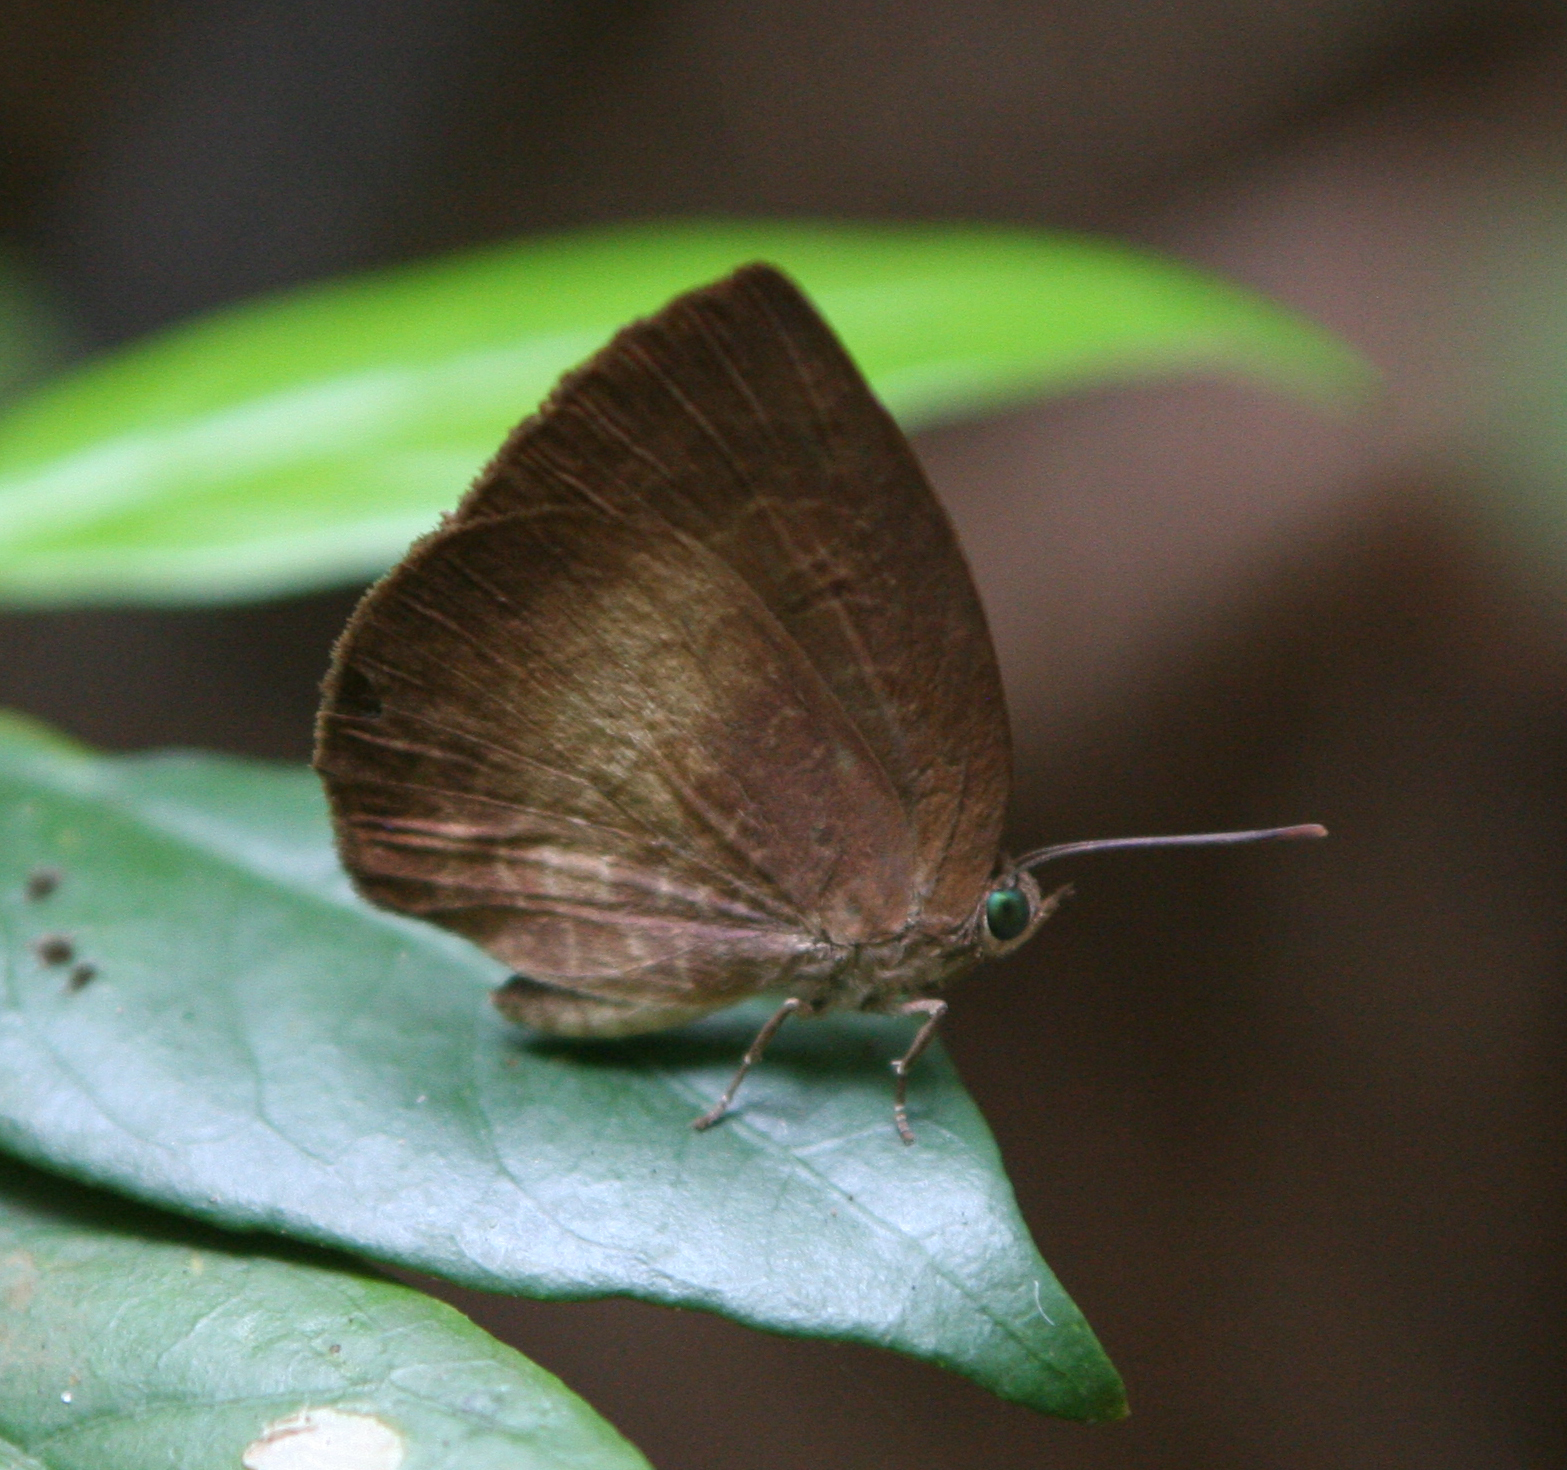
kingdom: Animalia
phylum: Arthropoda
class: Insecta
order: Lepidoptera
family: Lycaenidae
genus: Arhopala
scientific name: Arhopala perimuta
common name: Yellowdisc oakblue
